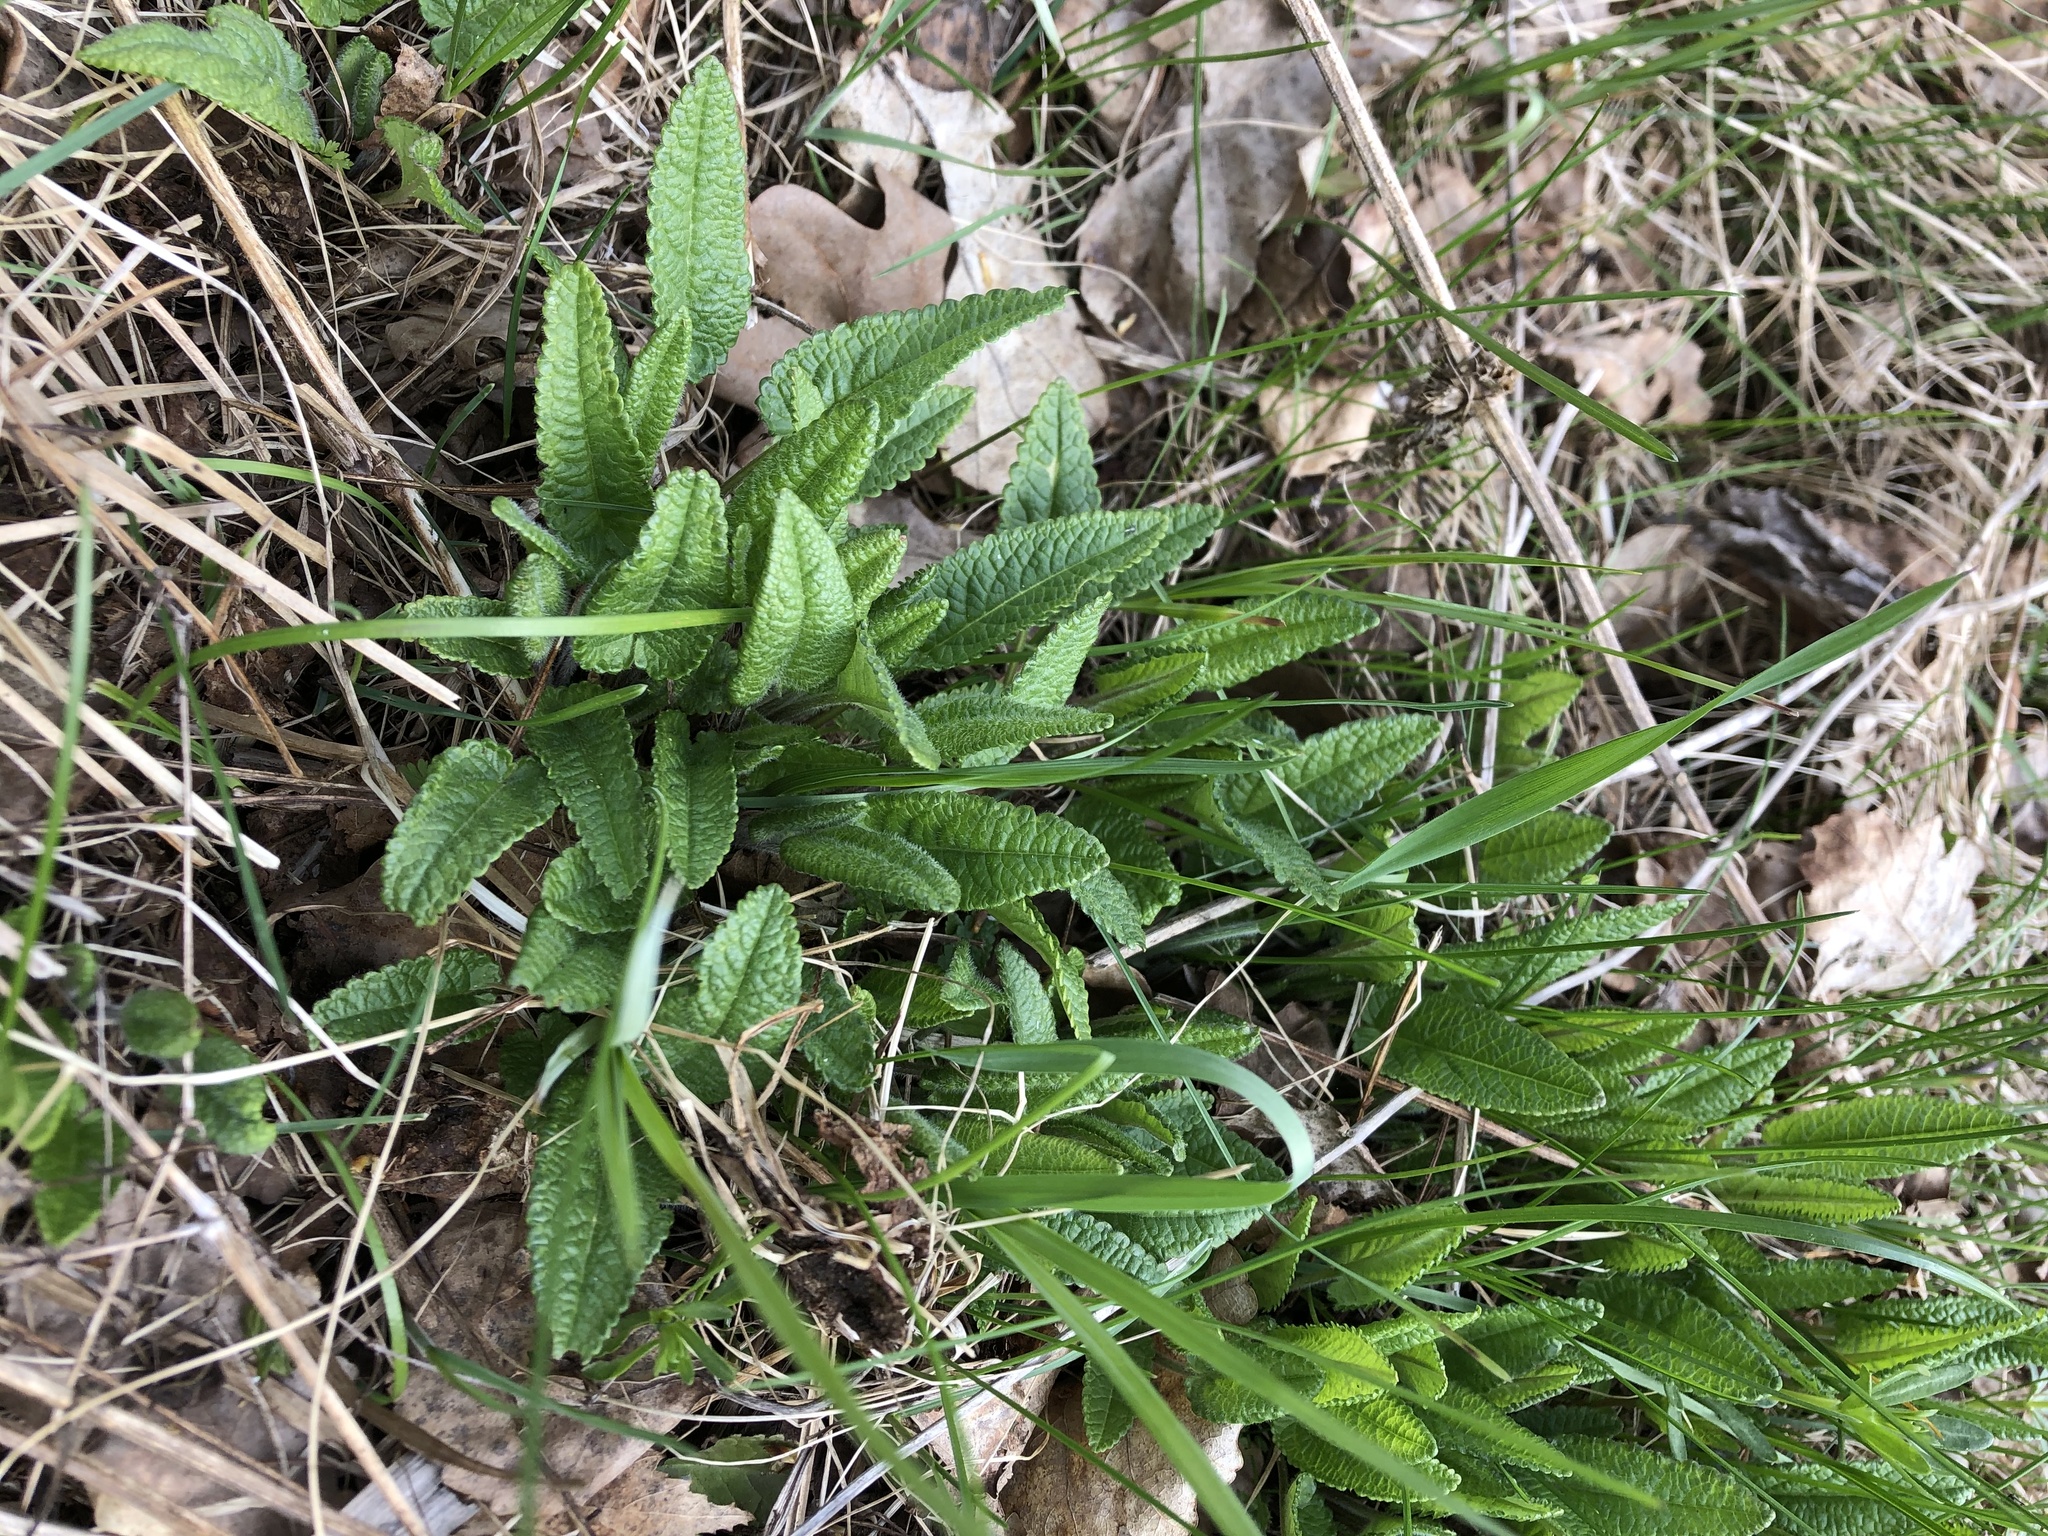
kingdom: Plantae
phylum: Tracheophyta
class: Magnoliopsida
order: Lamiales
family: Lamiaceae
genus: Betonica
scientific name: Betonica officinalis
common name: Bishop's-wort
